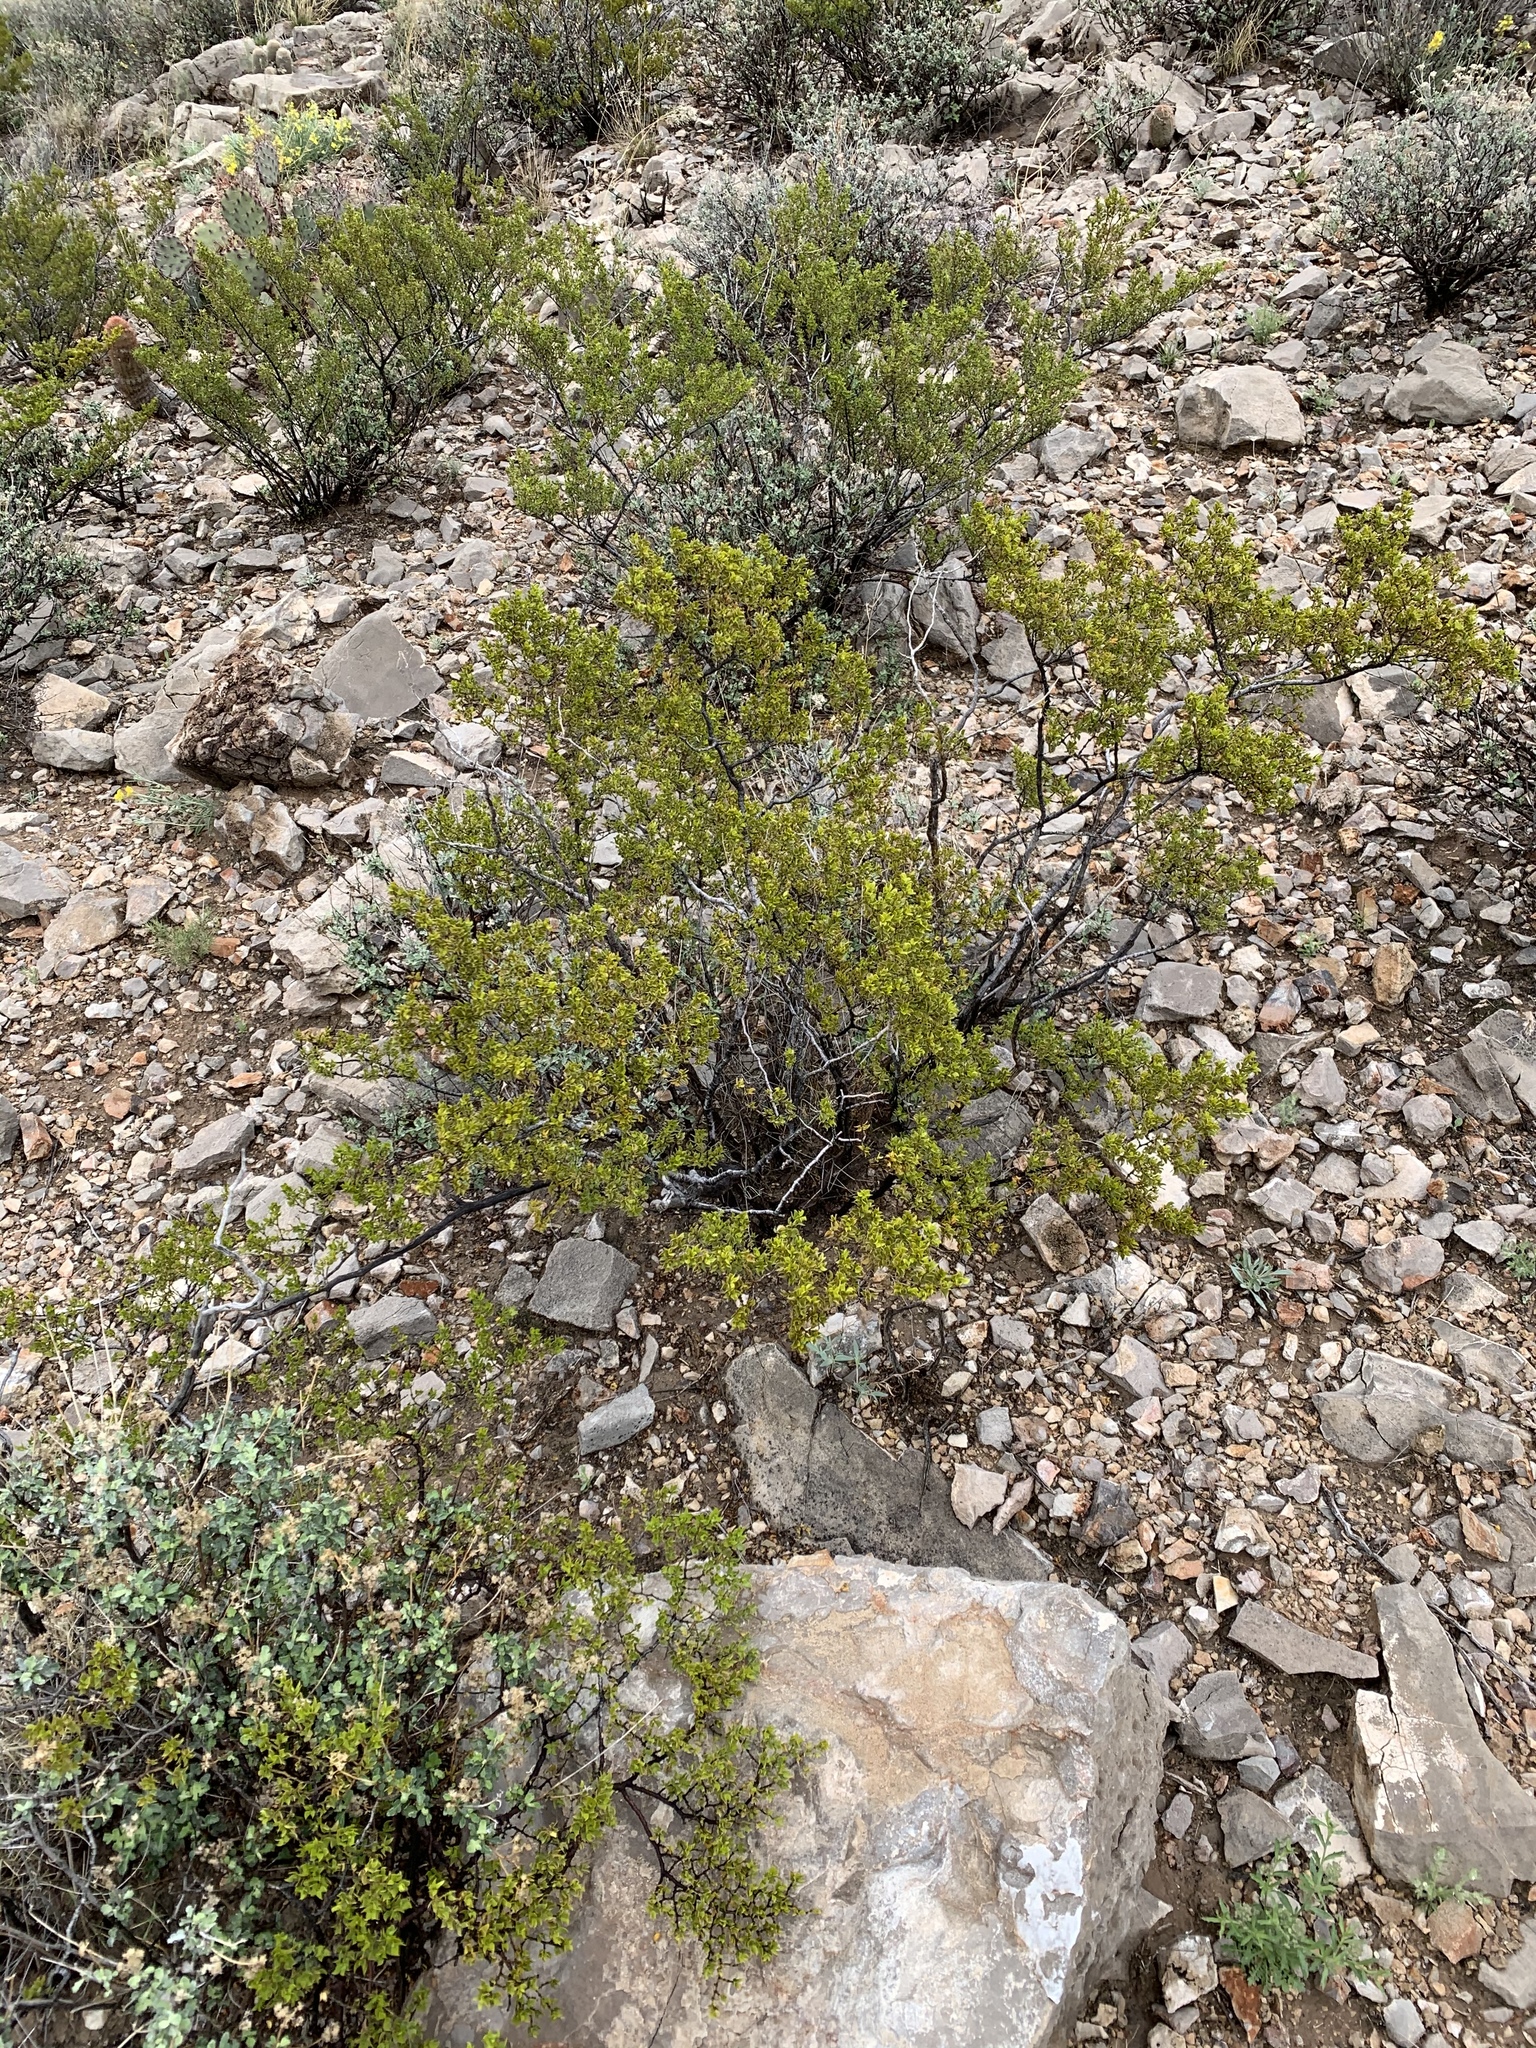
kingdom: Plantae
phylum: Tracheophyta
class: Magnoliopsida
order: Zygophyllales
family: Zygophyllaceae
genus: Larrea
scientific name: Larrea tridentata
